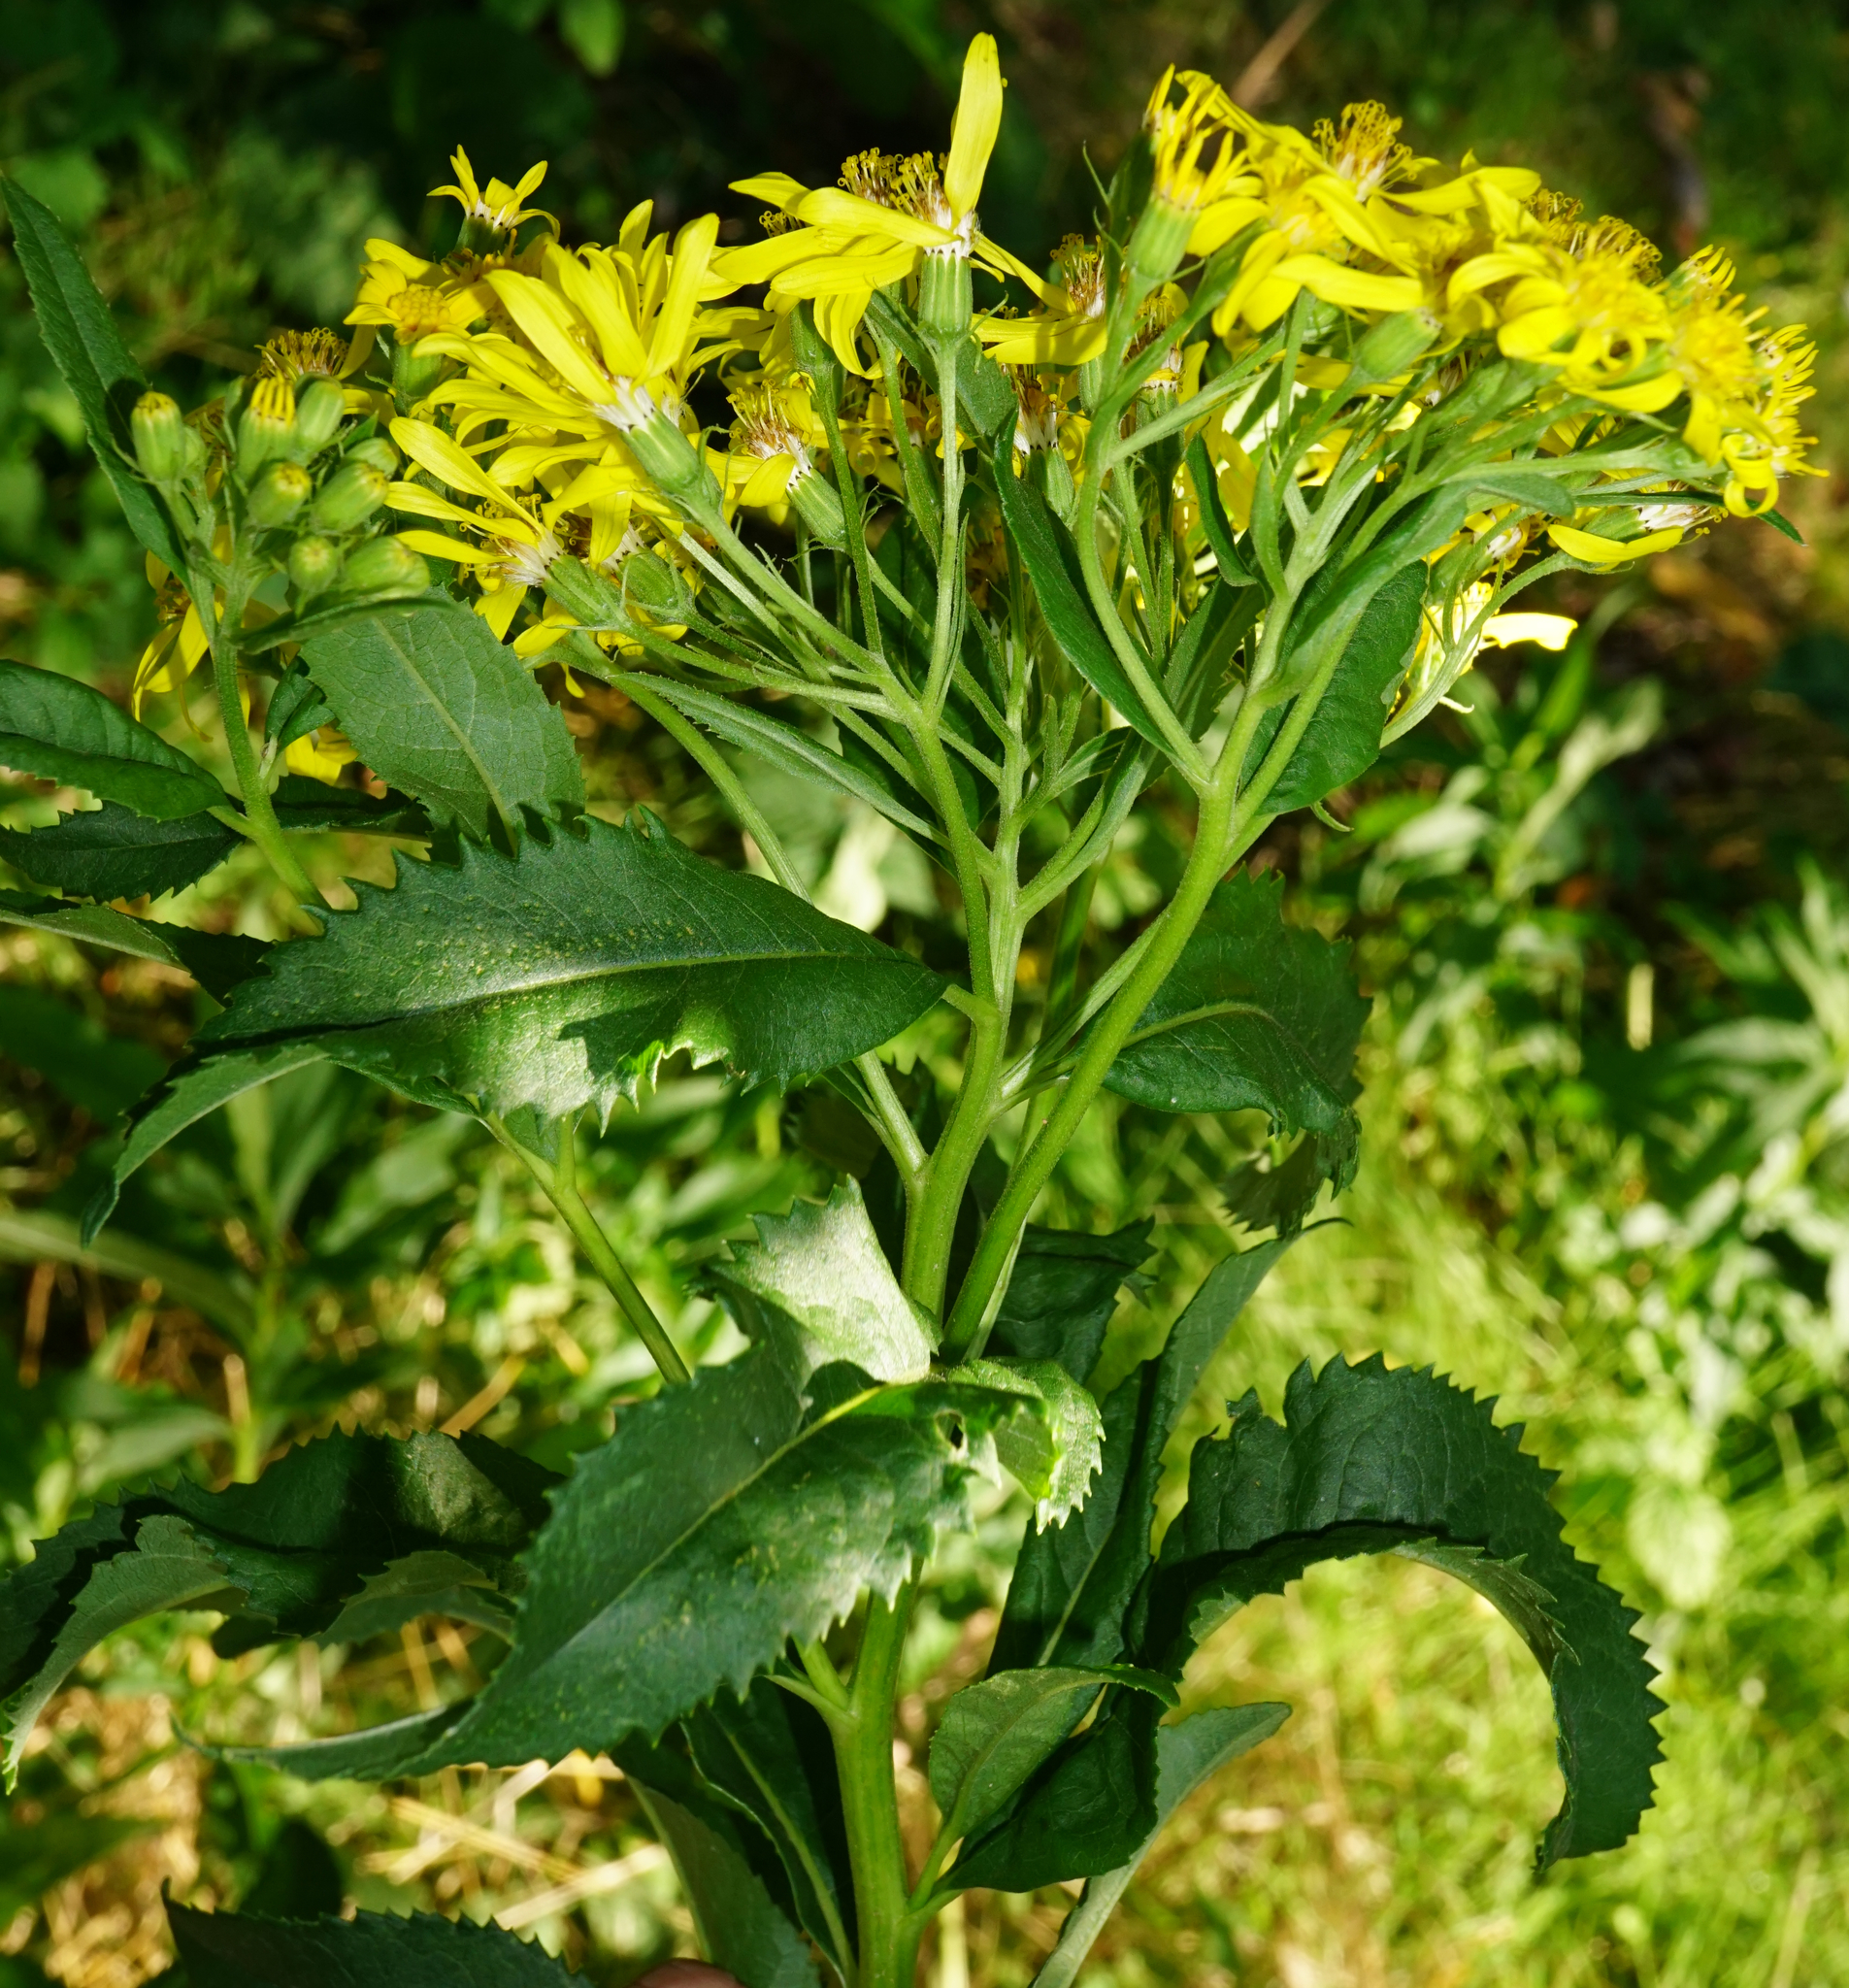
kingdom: Plantae
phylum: Tracheophyta
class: Magnoliopsida
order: Asterales
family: Asteraceae
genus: Senecio
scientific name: Senecio sarracenicus
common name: Broad-leaved ragwort
